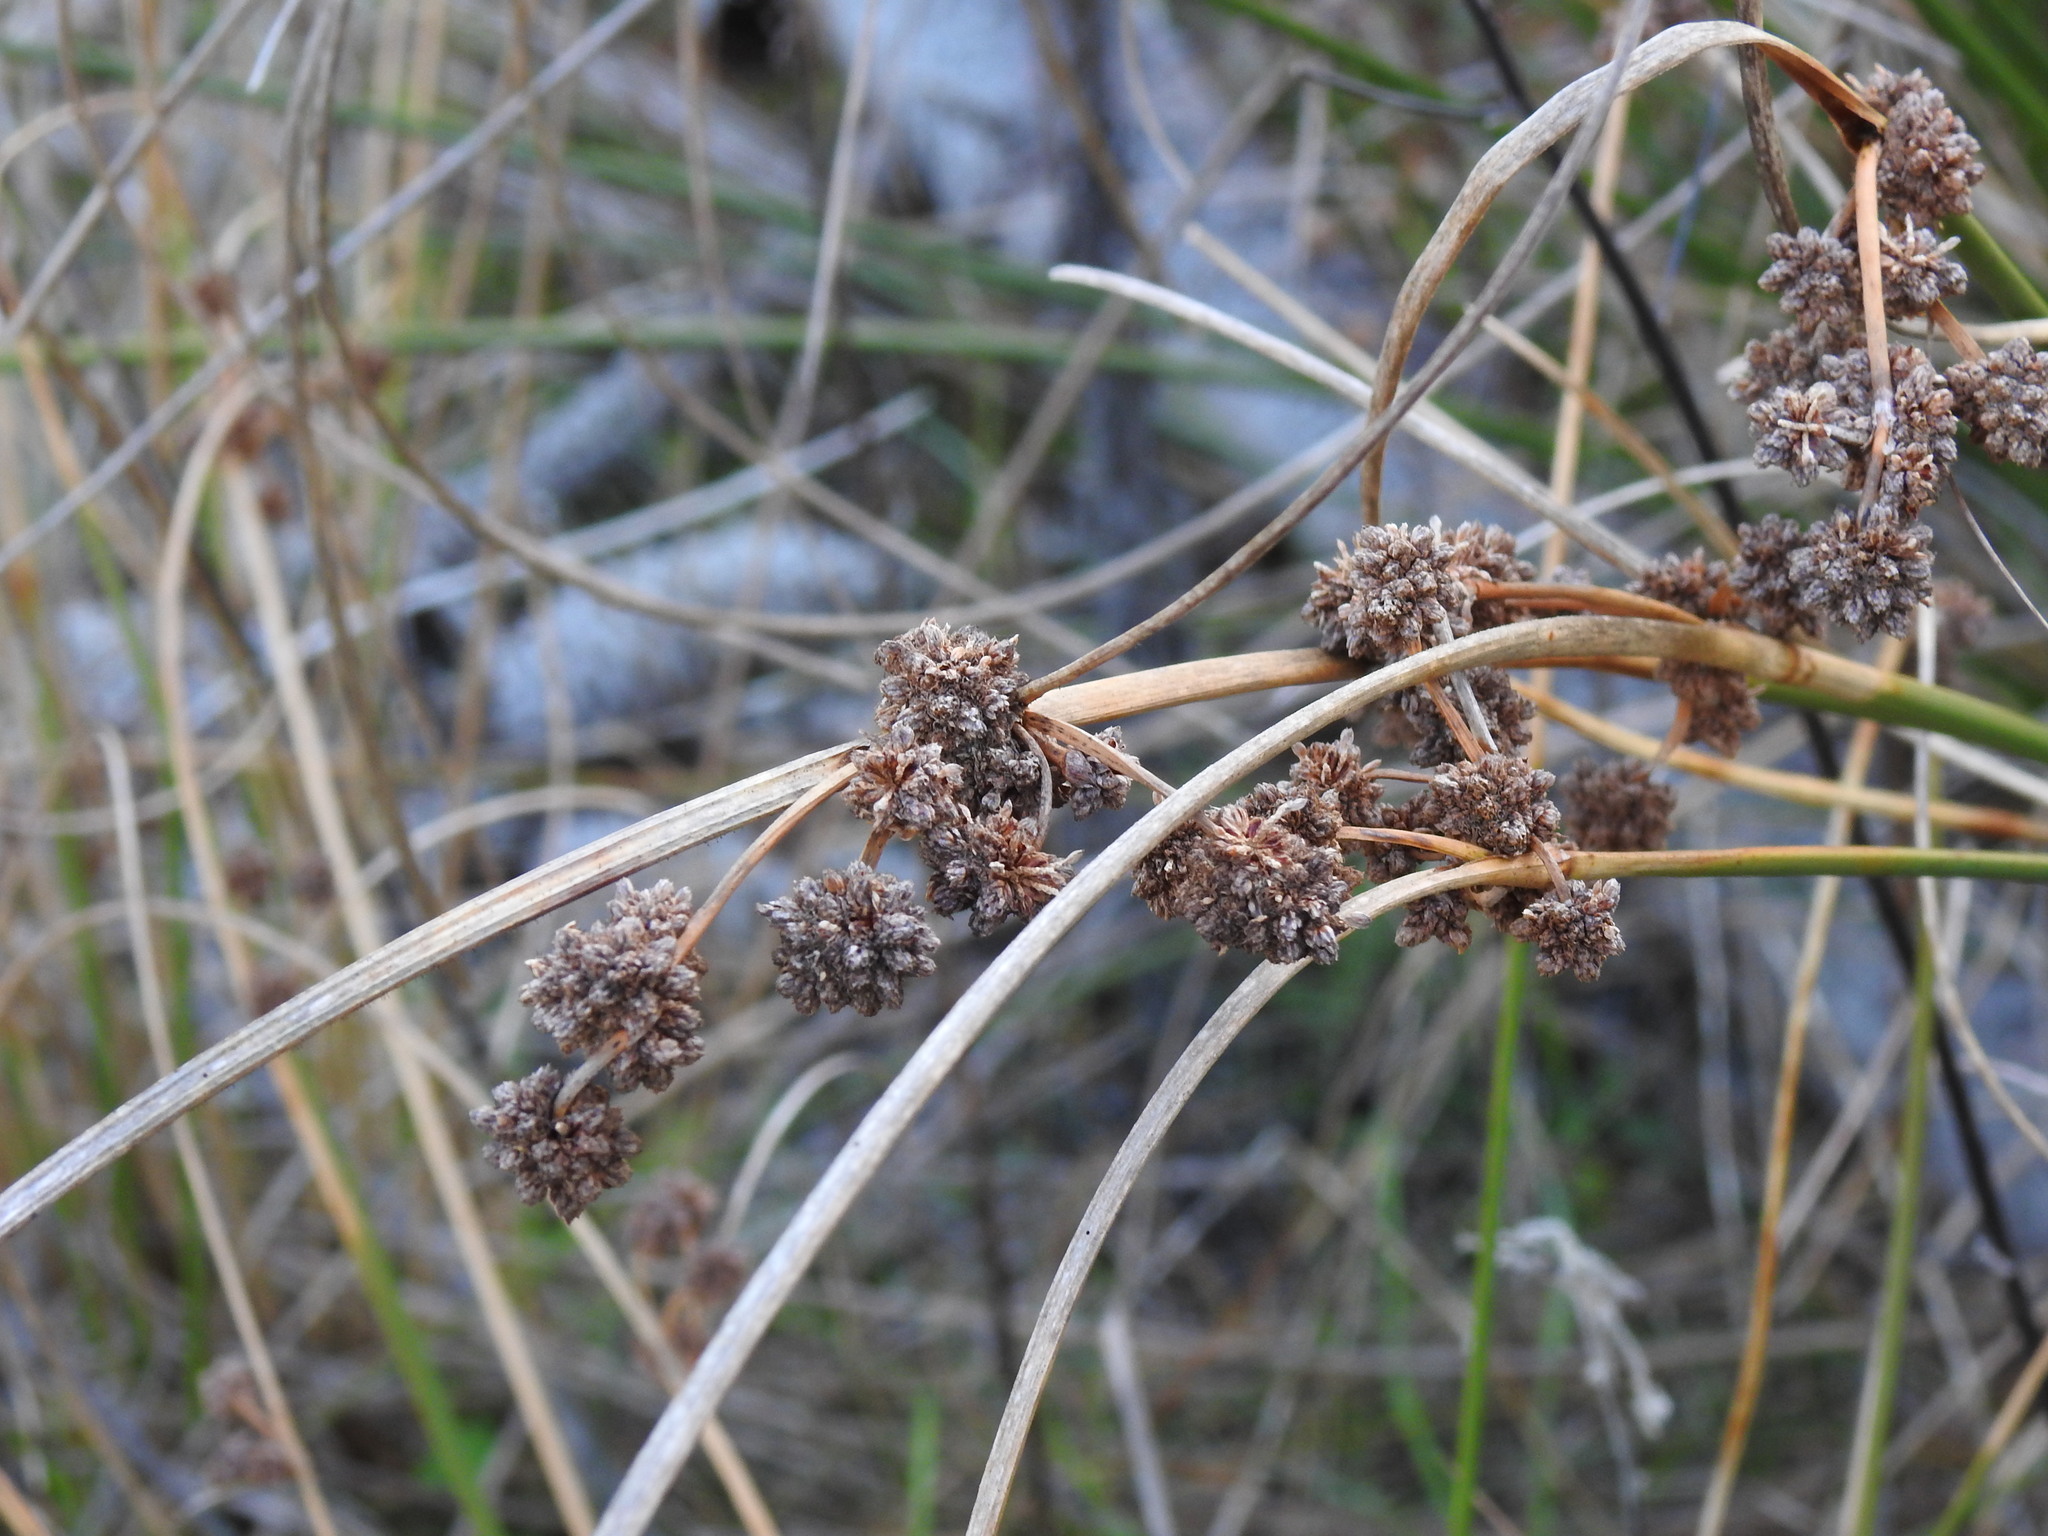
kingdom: Plantae
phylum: Tracheophyta
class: Liliopsida
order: Poales
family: Cyperaceae
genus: Scirpoides
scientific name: Scirpoides holoschoenus
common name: Round-headed club-rush
